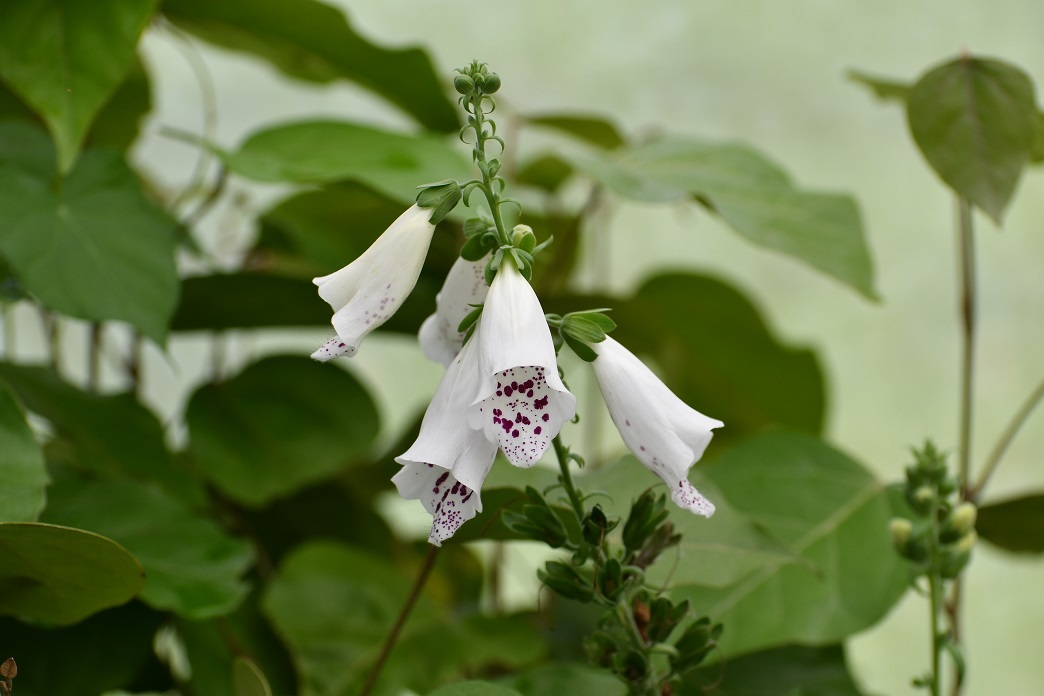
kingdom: Plantae
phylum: Tracheophyta
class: Magnoliopsida
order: Lamiales
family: Plantaginaceae
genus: Digitalis
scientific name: Digitalis purpurea
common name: Foxglove
